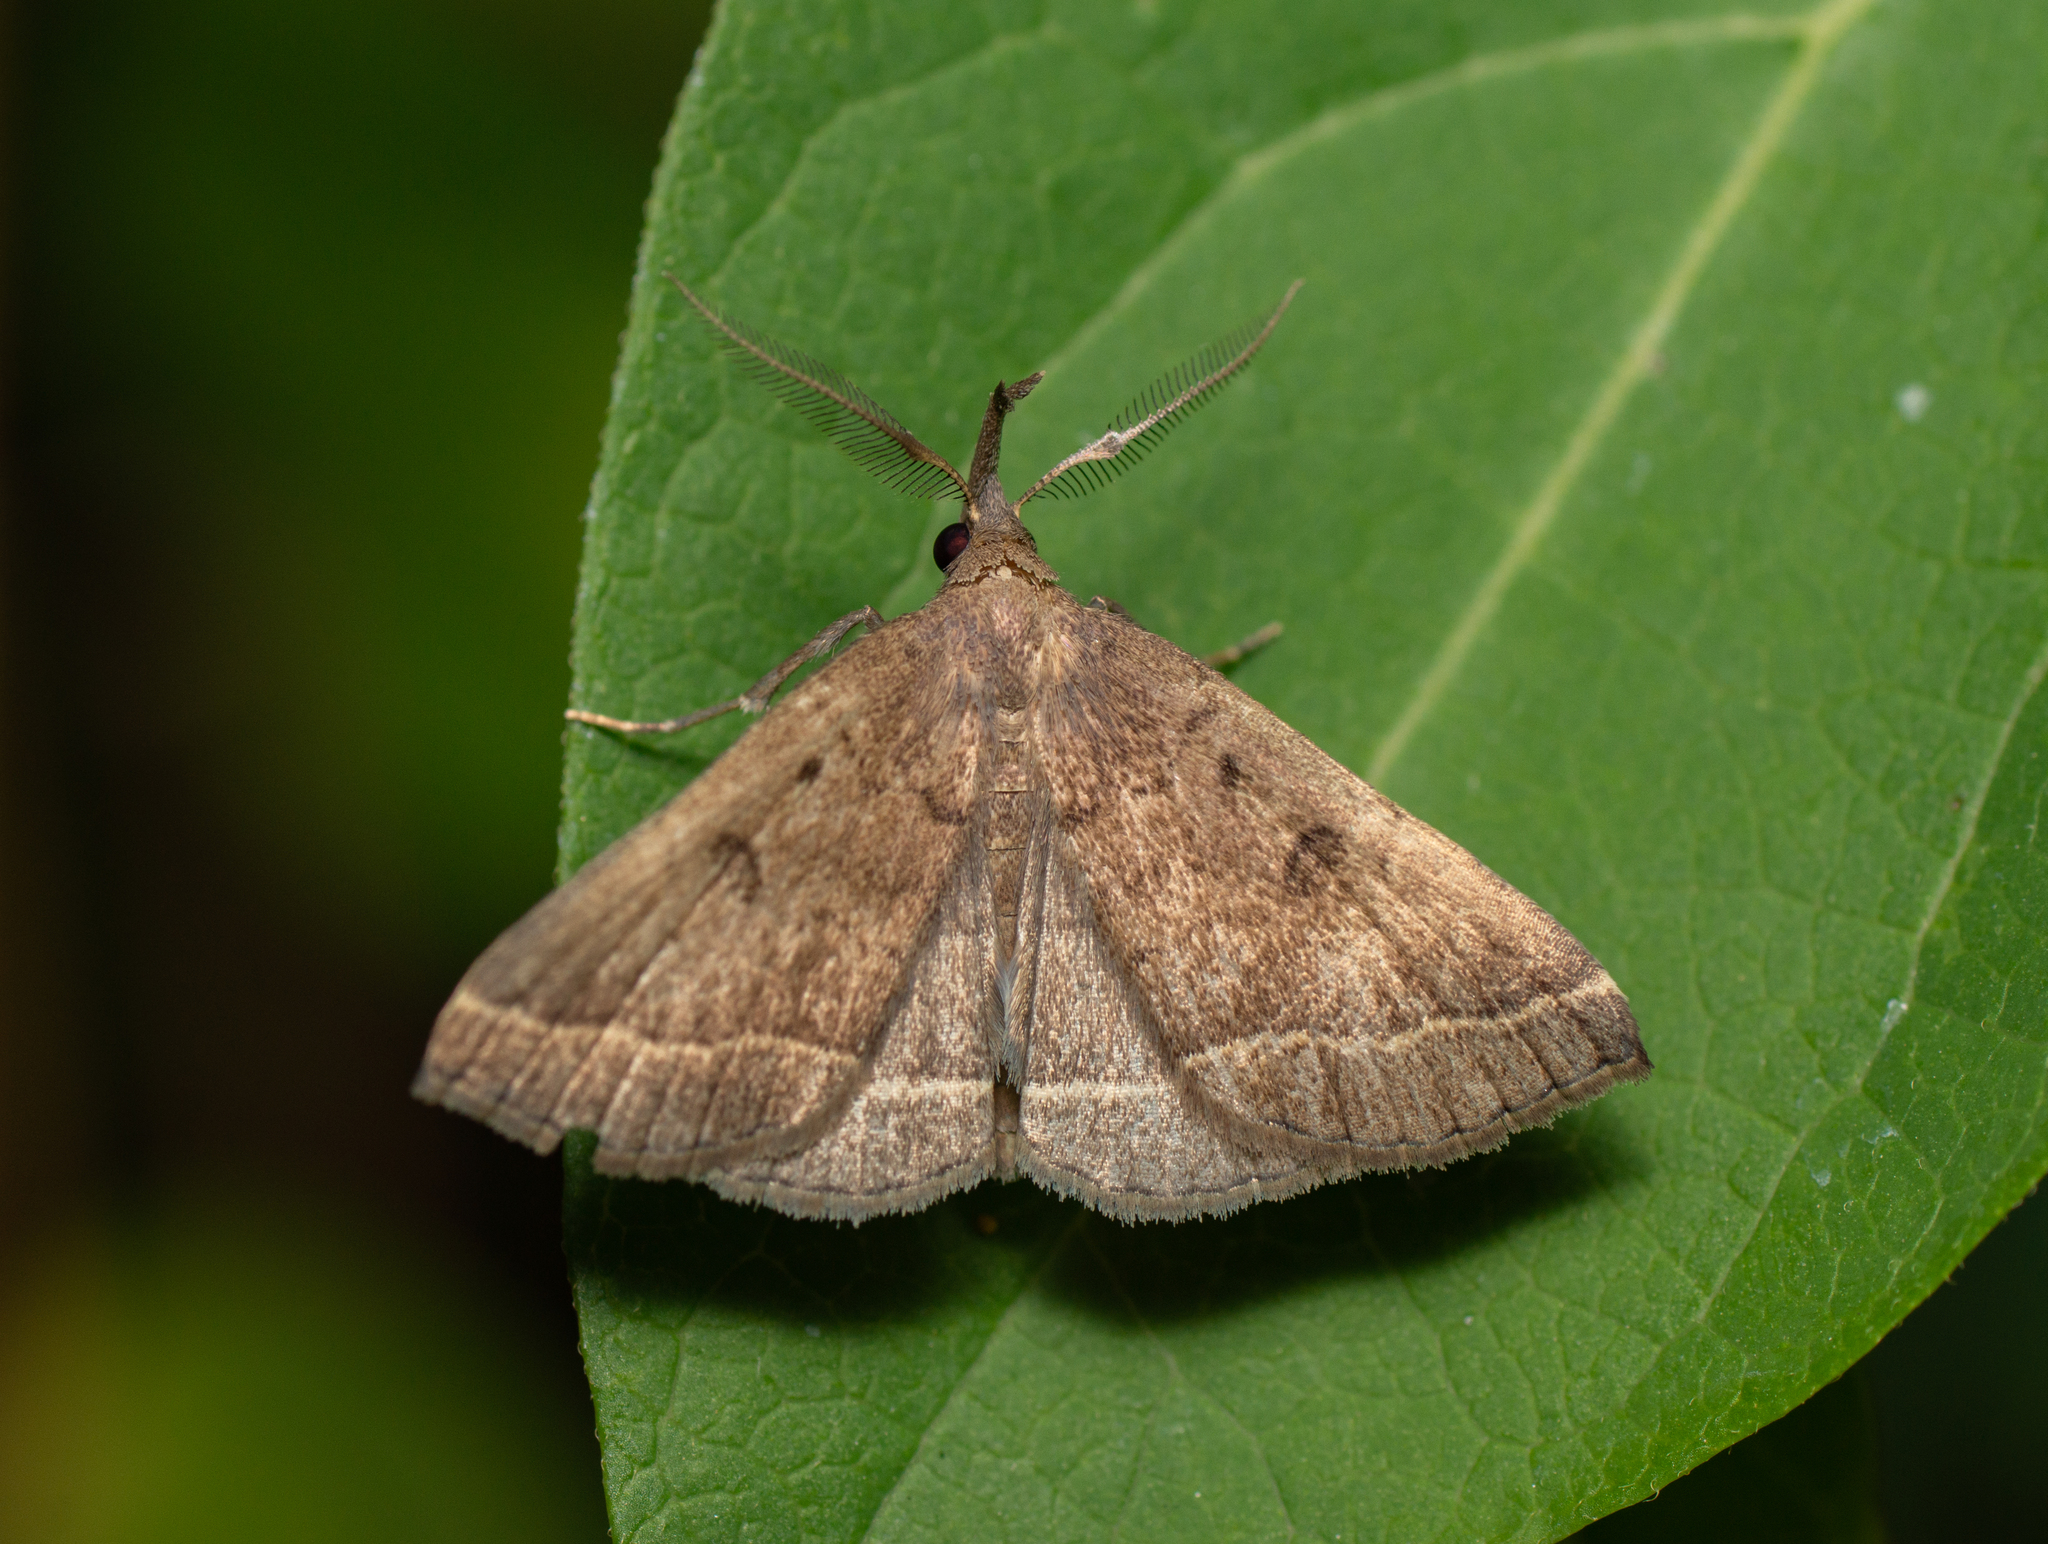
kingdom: Animalia
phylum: Arthropoda
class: Insecta
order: Lepidoptera
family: Erebidae
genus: Pechipogo
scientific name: Pechipogo plumigeralis
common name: Plumed fan-foot
